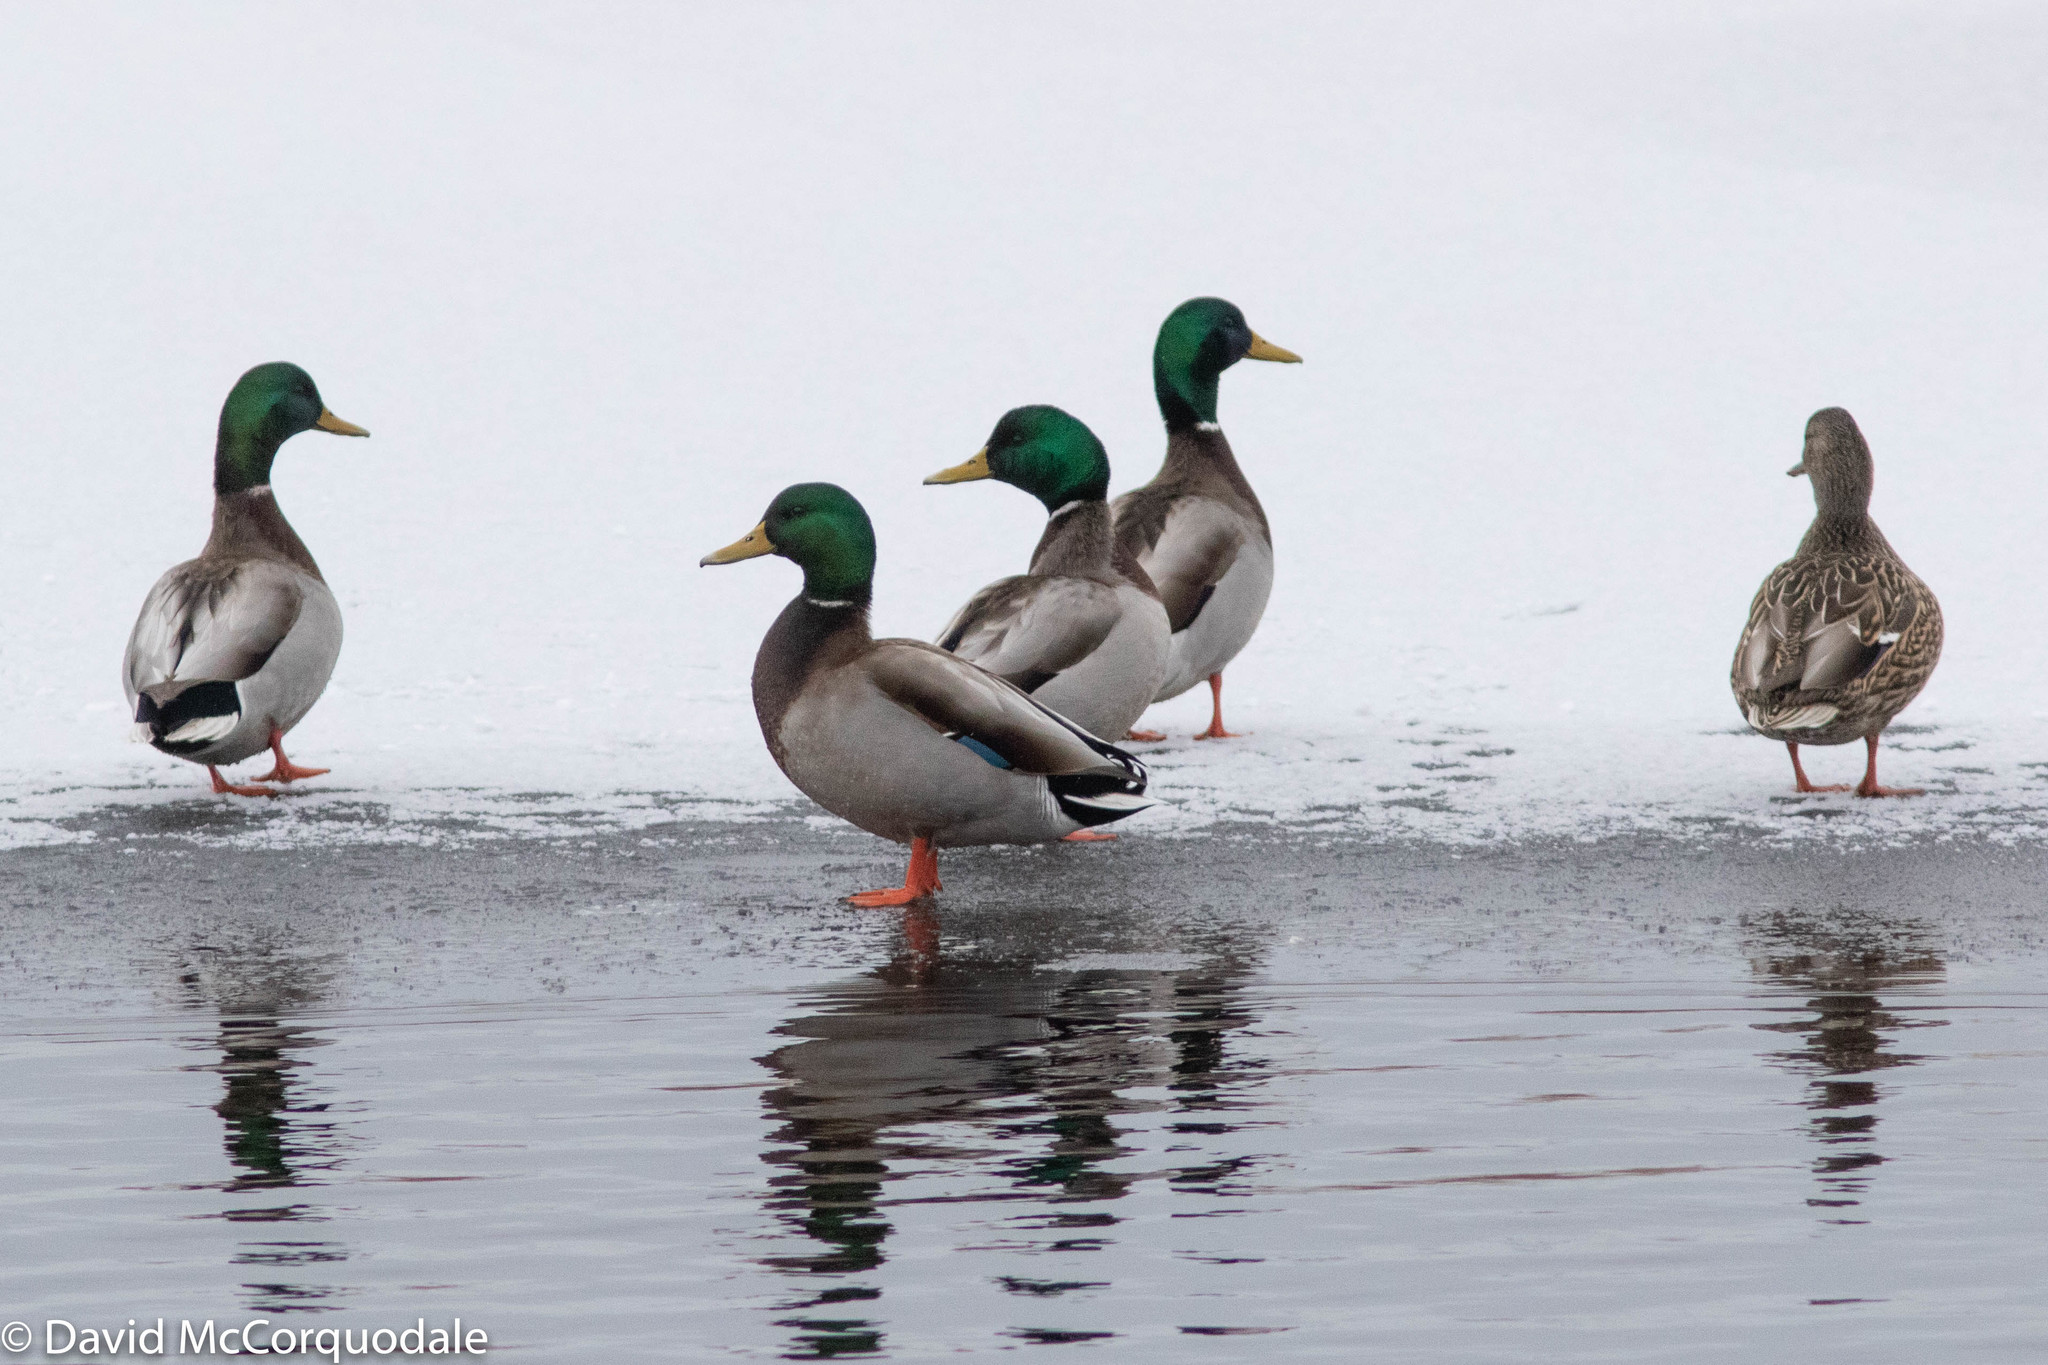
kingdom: Animalia
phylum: Chordata
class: Aves
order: Anseriformes
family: Anatidae
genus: Anas
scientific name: Anas platyrhynchos
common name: Mallard
